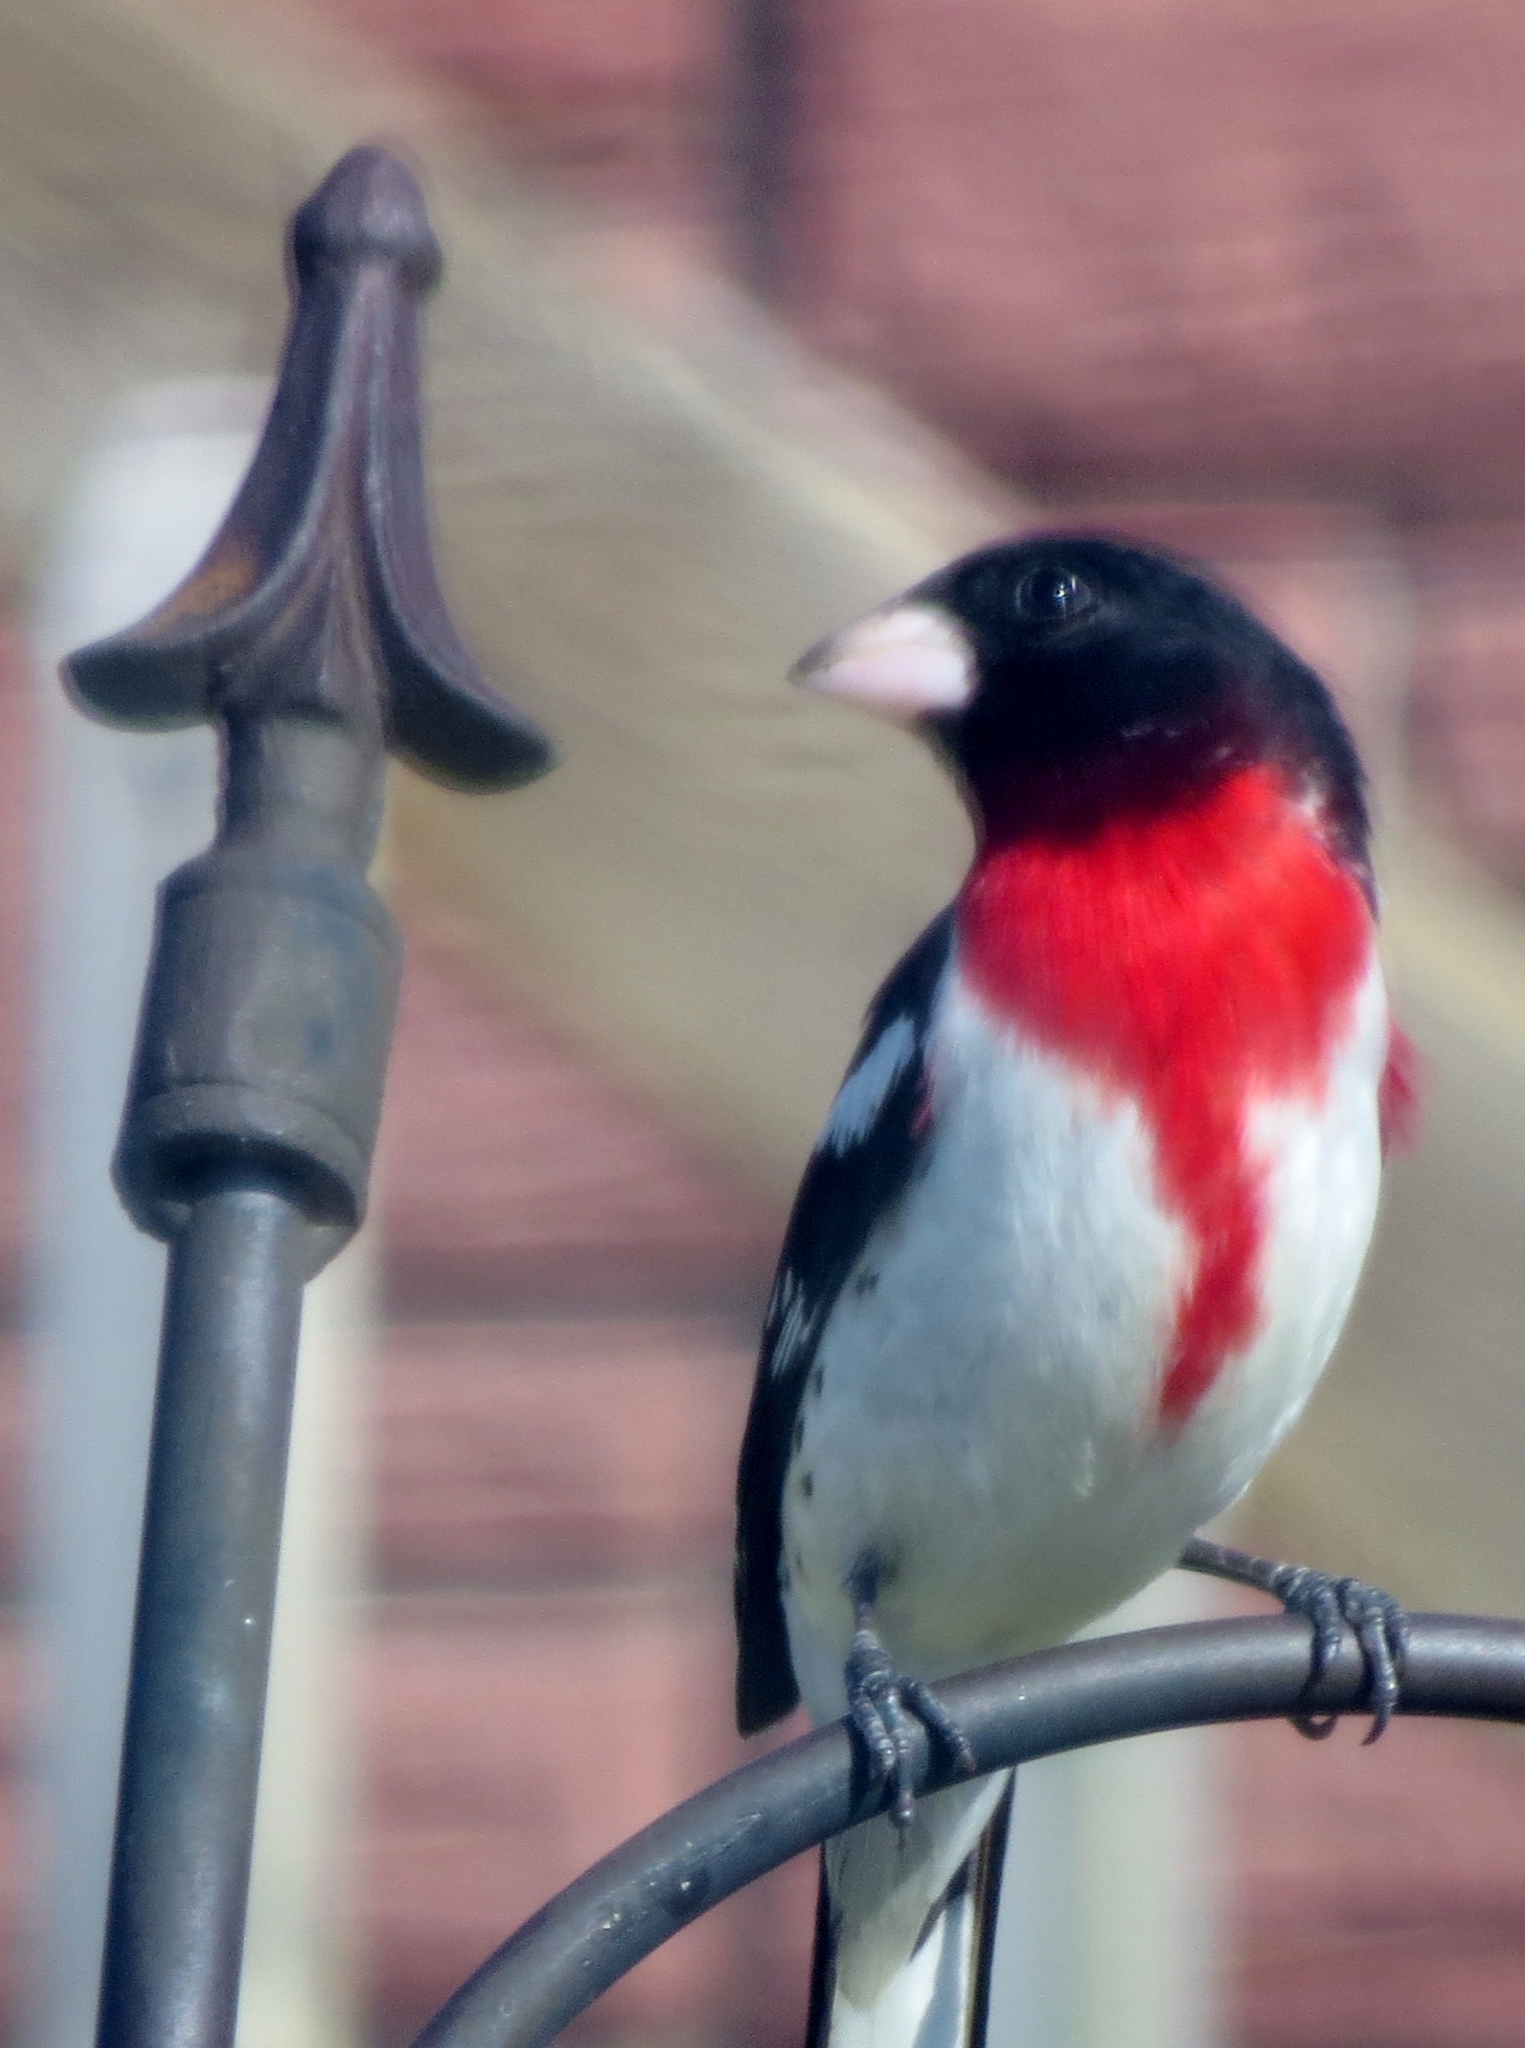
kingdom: Animalia
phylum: Chordata
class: Aves
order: Passeriformes
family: Cardinalidae
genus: Pheucticus
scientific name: Pheucticus ludovicianus
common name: Rose-breasted grosbeak
